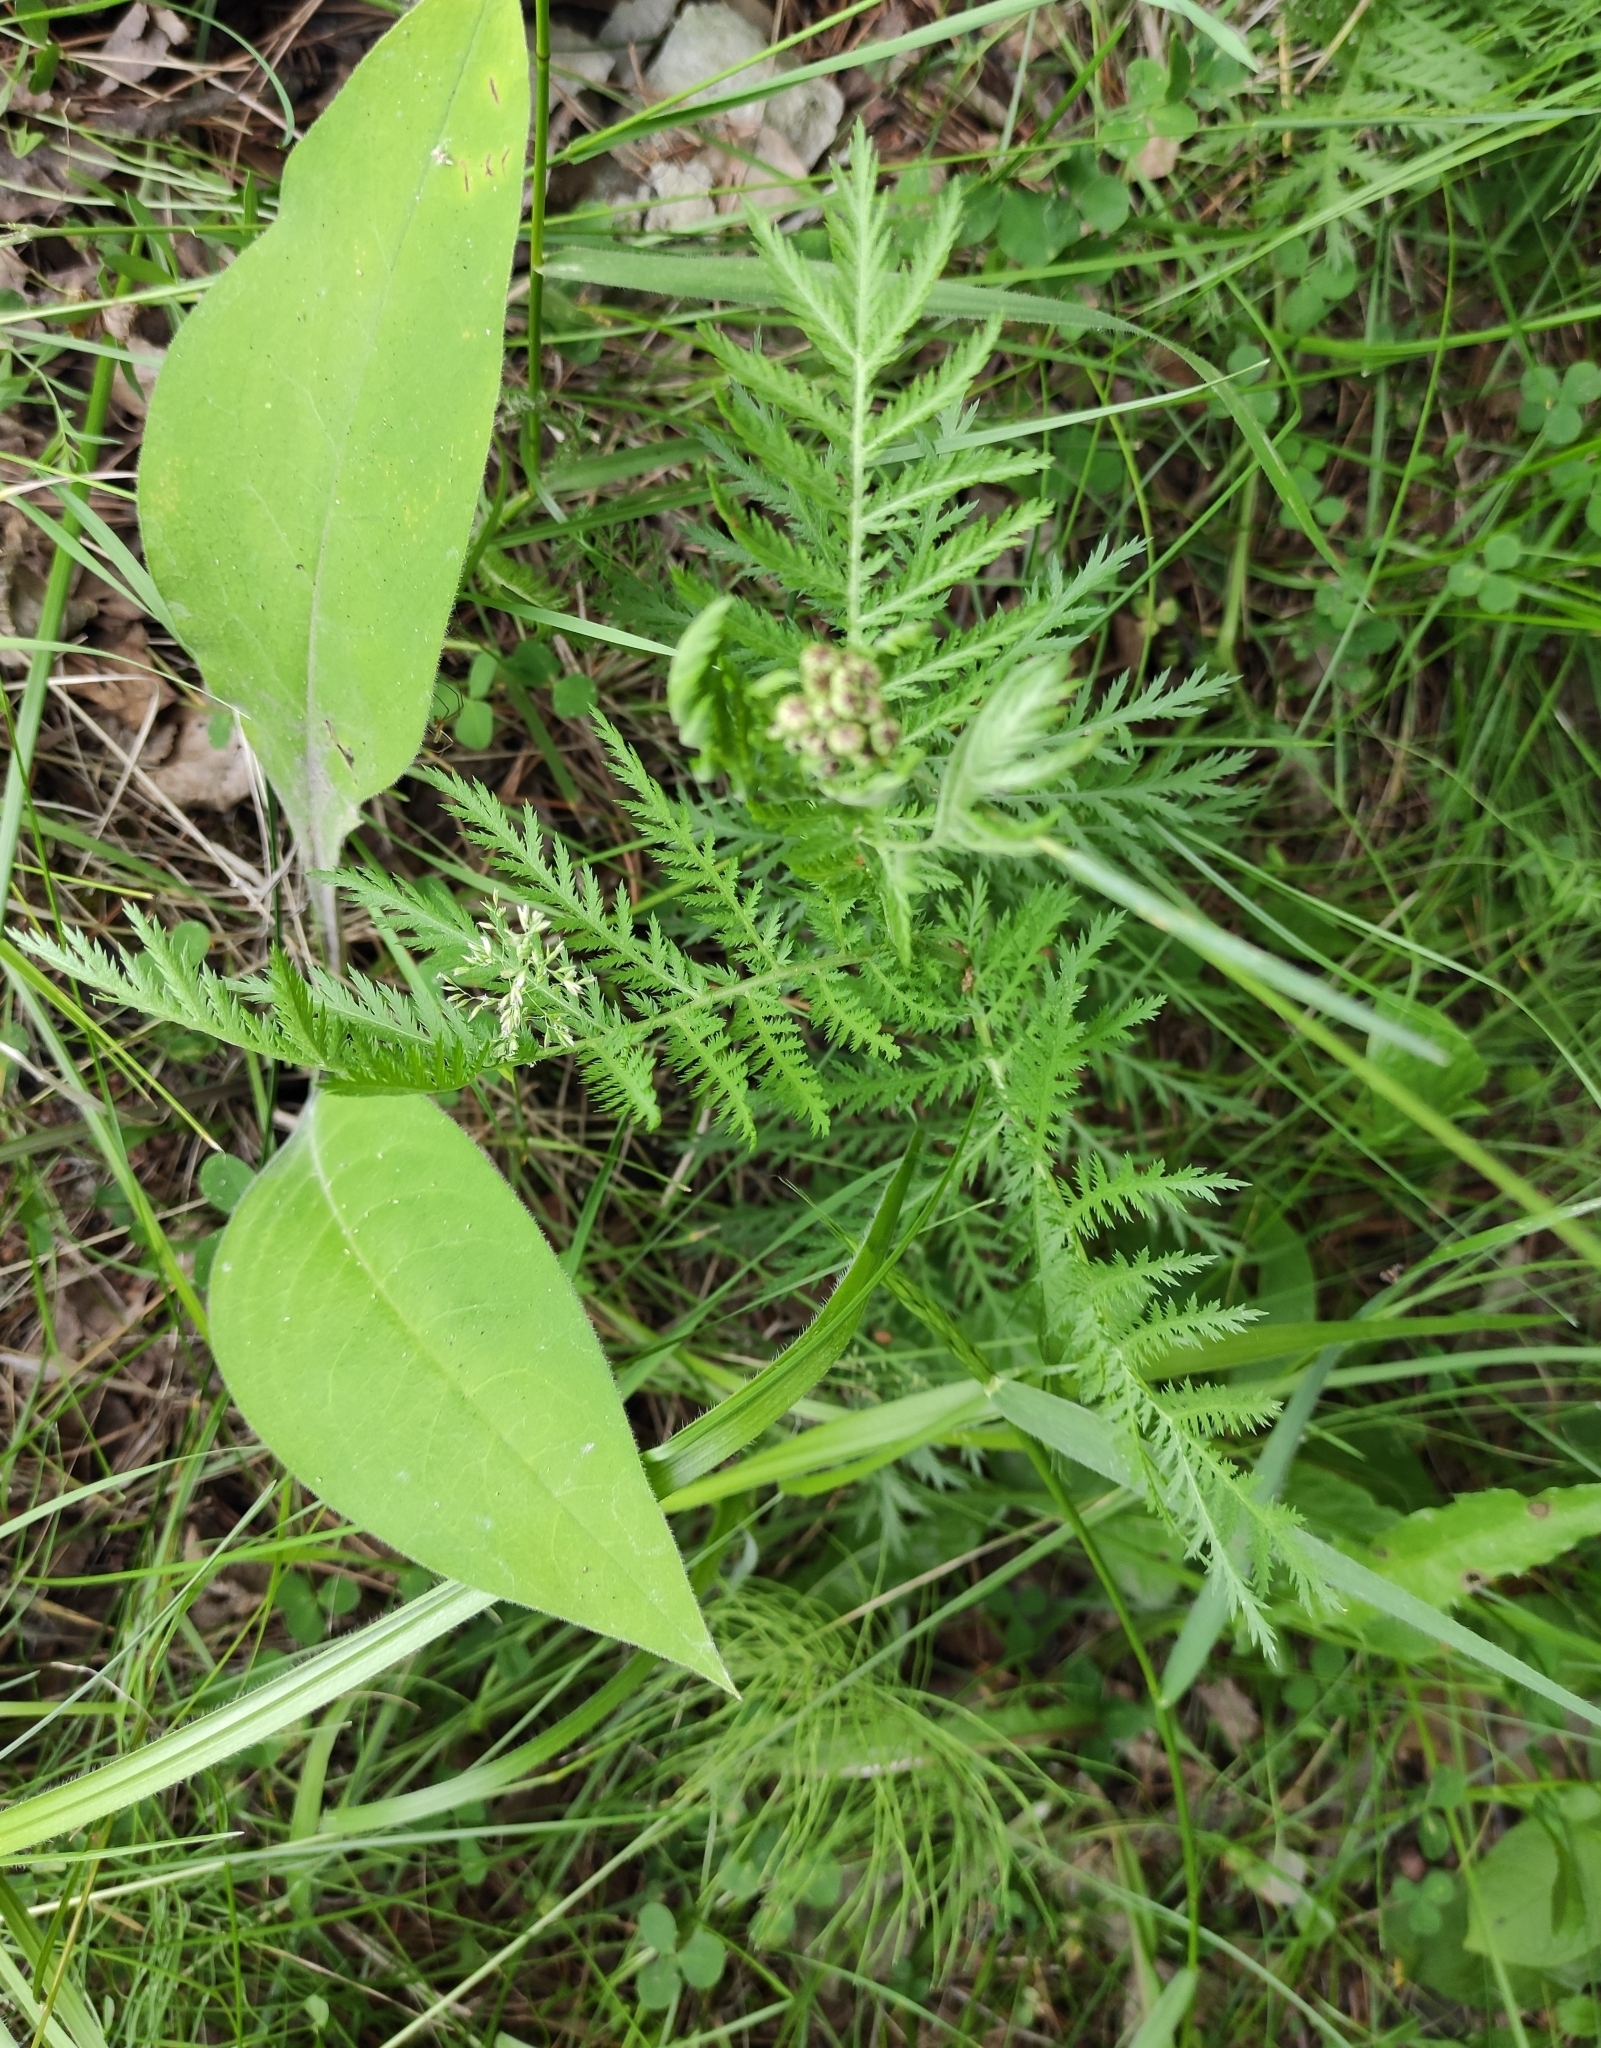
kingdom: Plantae
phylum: Tracheophyta
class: Magnoliopsida
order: Asterales
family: Asteraceae
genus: Tanacetum
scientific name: Tanacetum vulgare
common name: Common tansy
